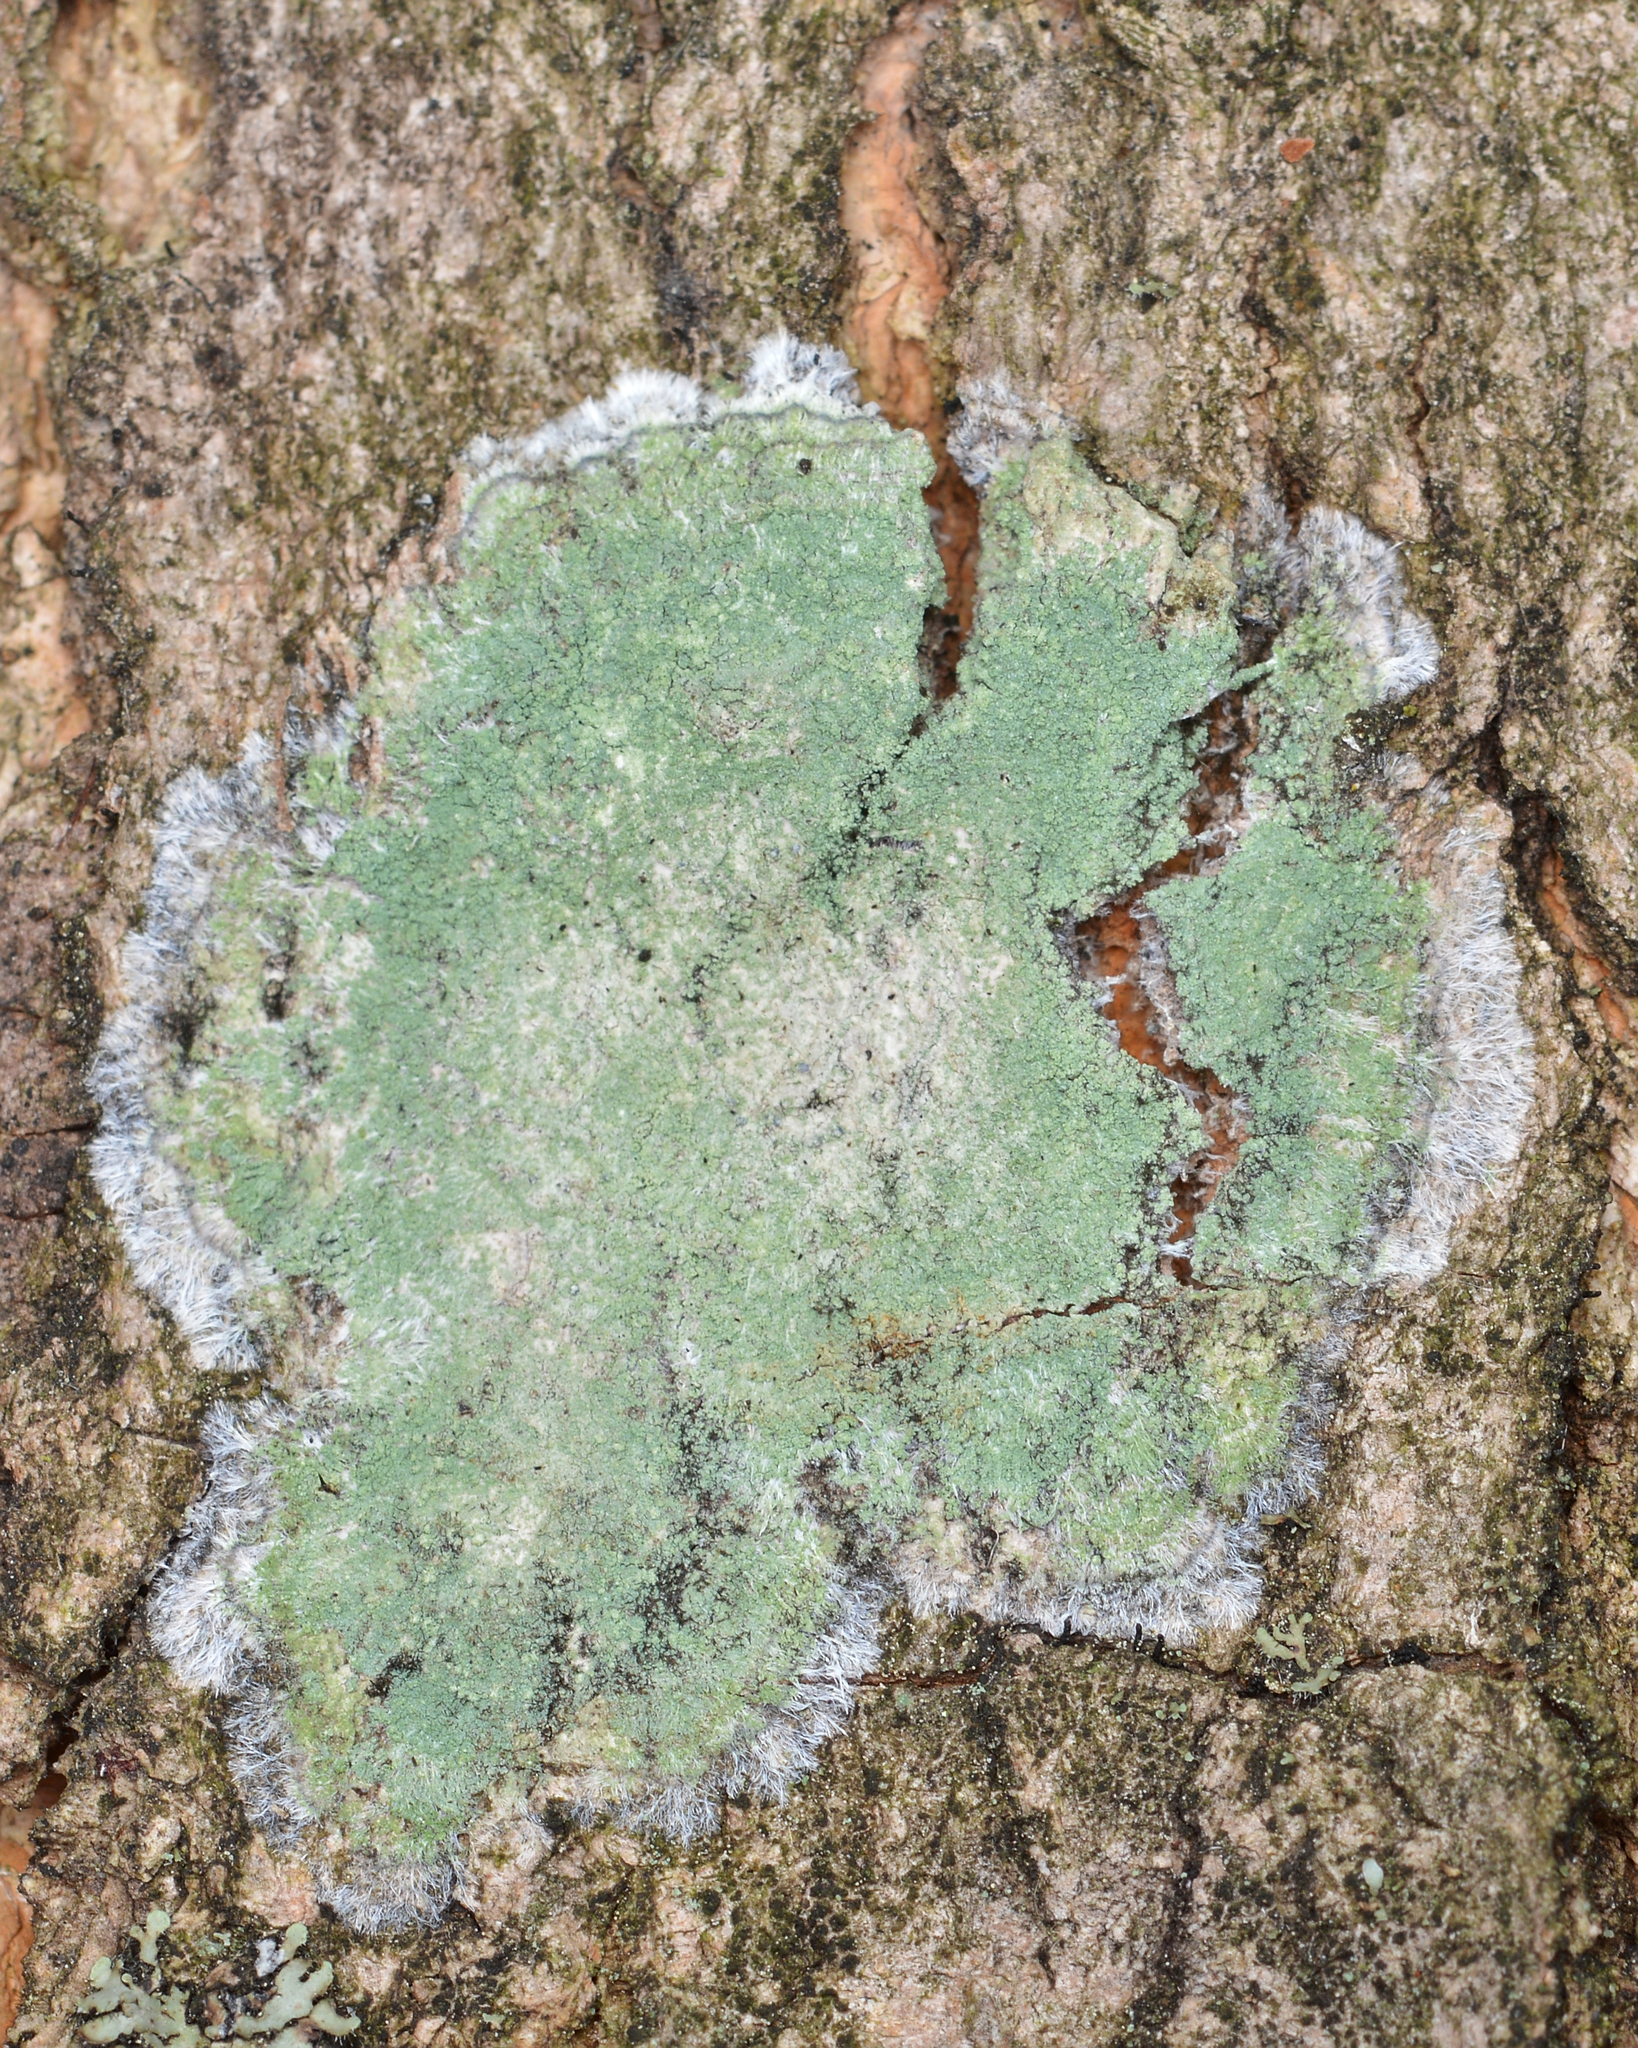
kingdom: Fungi
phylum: Ascomycota
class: Lecanoromycetes
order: Pertusariales
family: Pertusariaceae
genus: Verseghya
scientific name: Verseghya thysanophora
